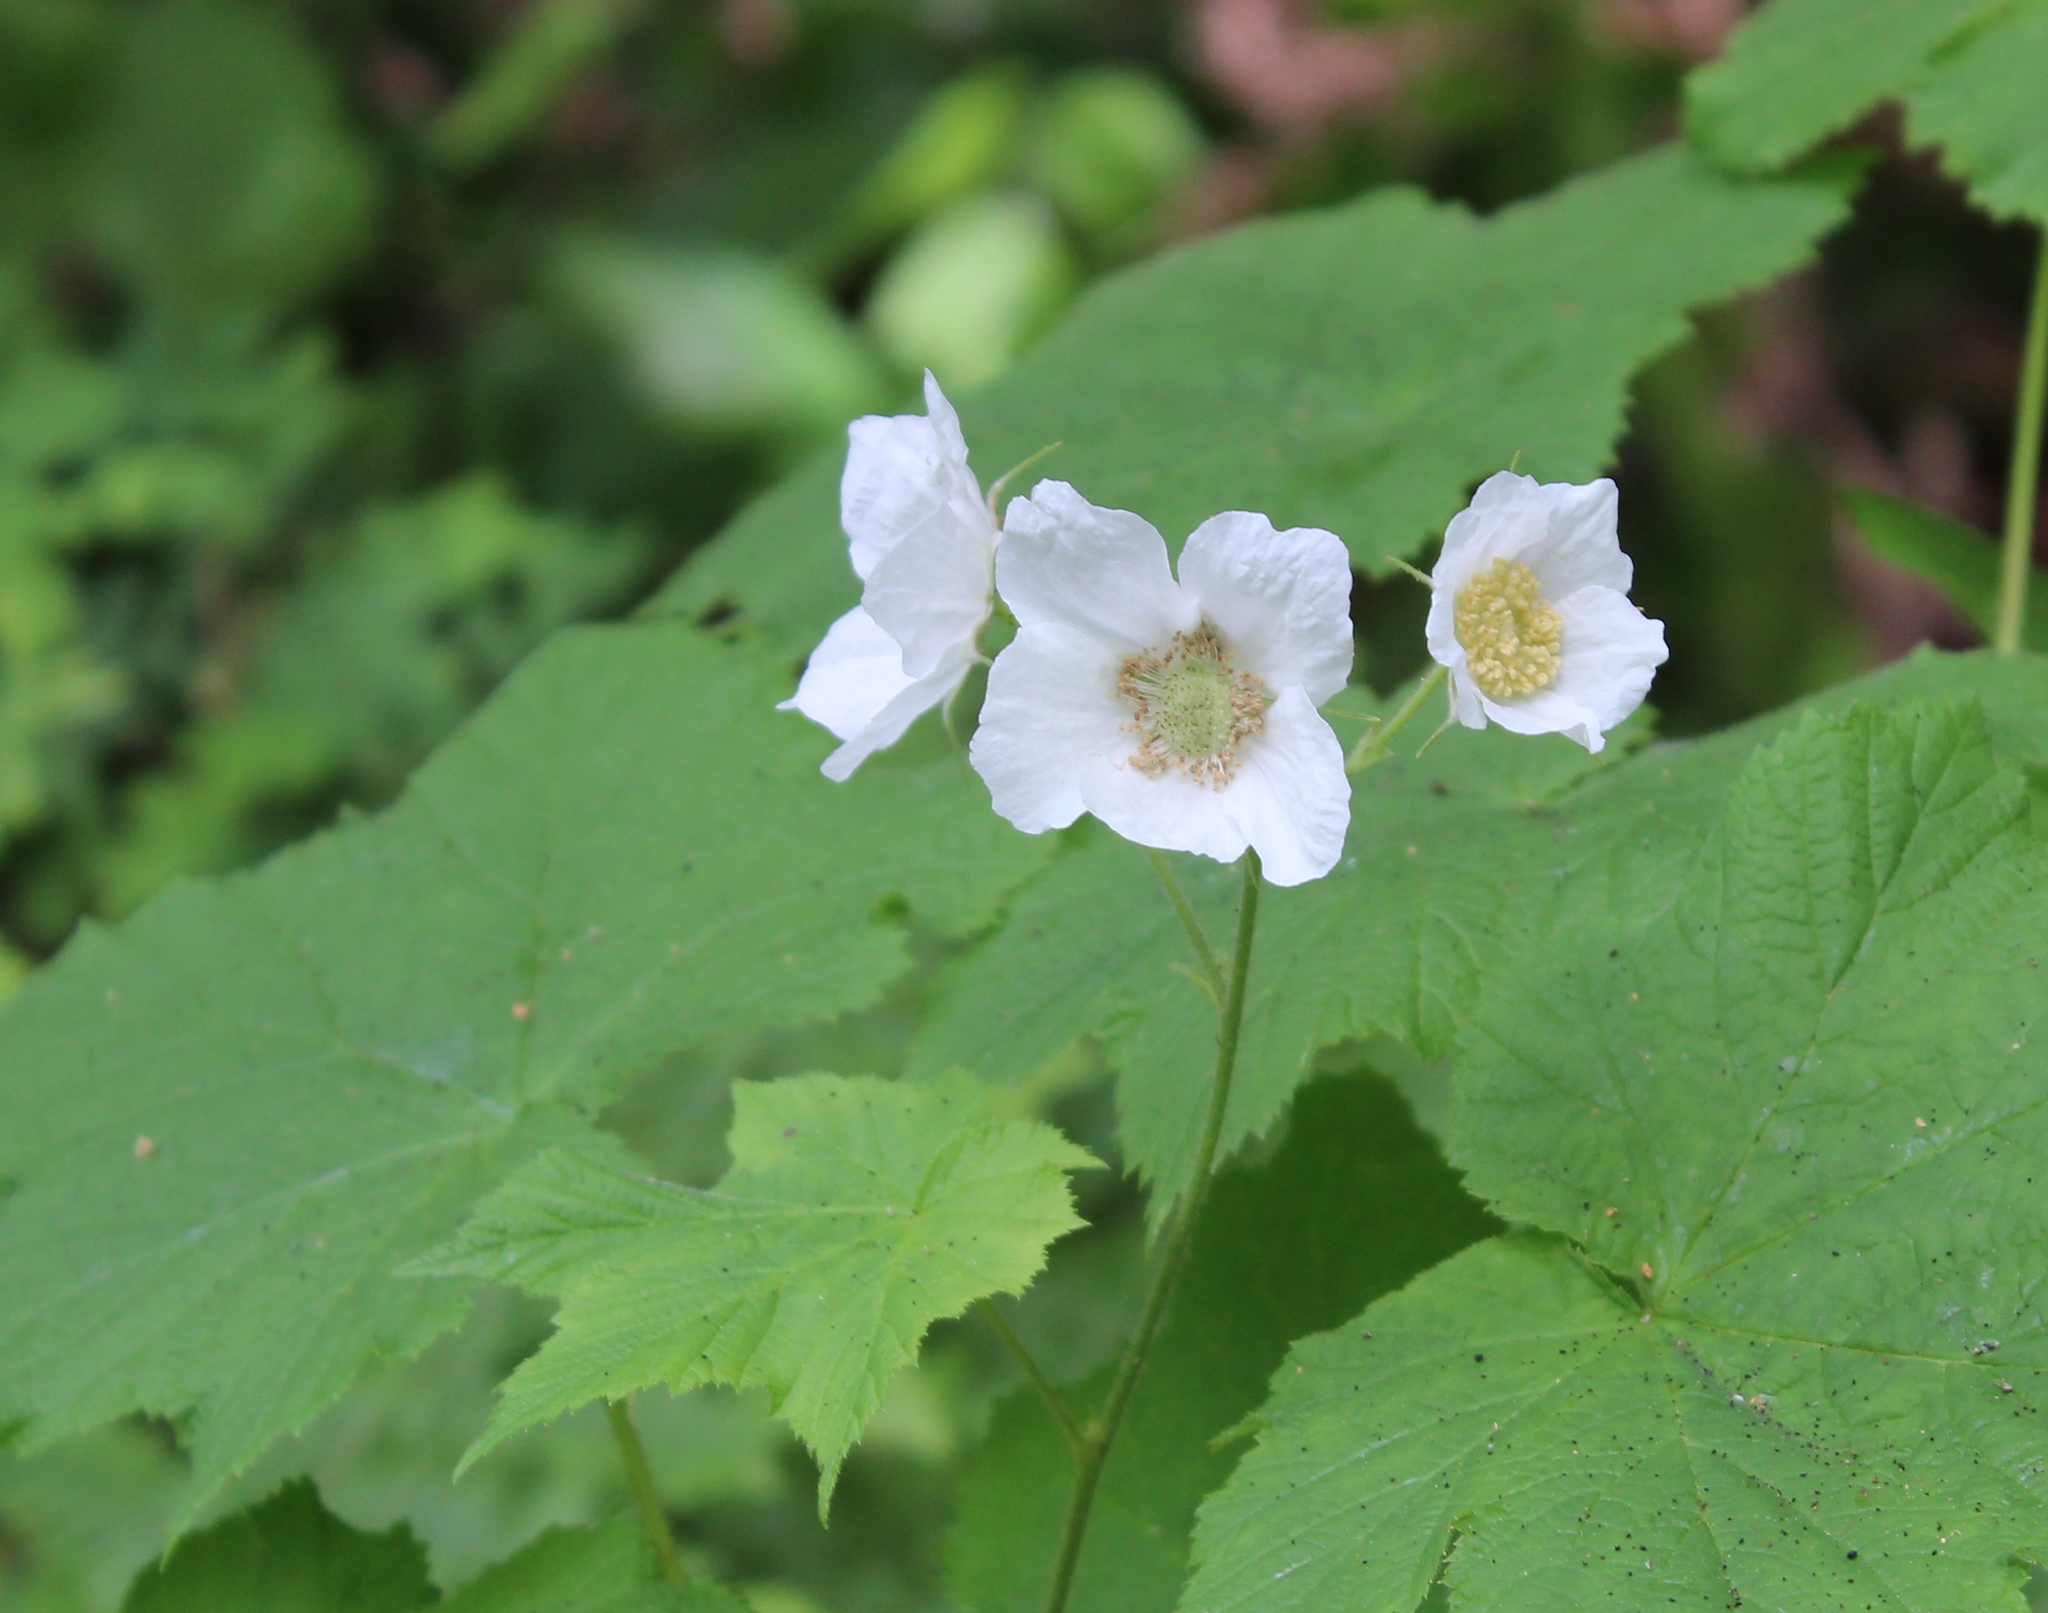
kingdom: Plantae
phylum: Tracheophyta
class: Magnoliopsida
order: Rosales
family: Rosaceae
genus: Rubus
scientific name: Rubus parviflorus
